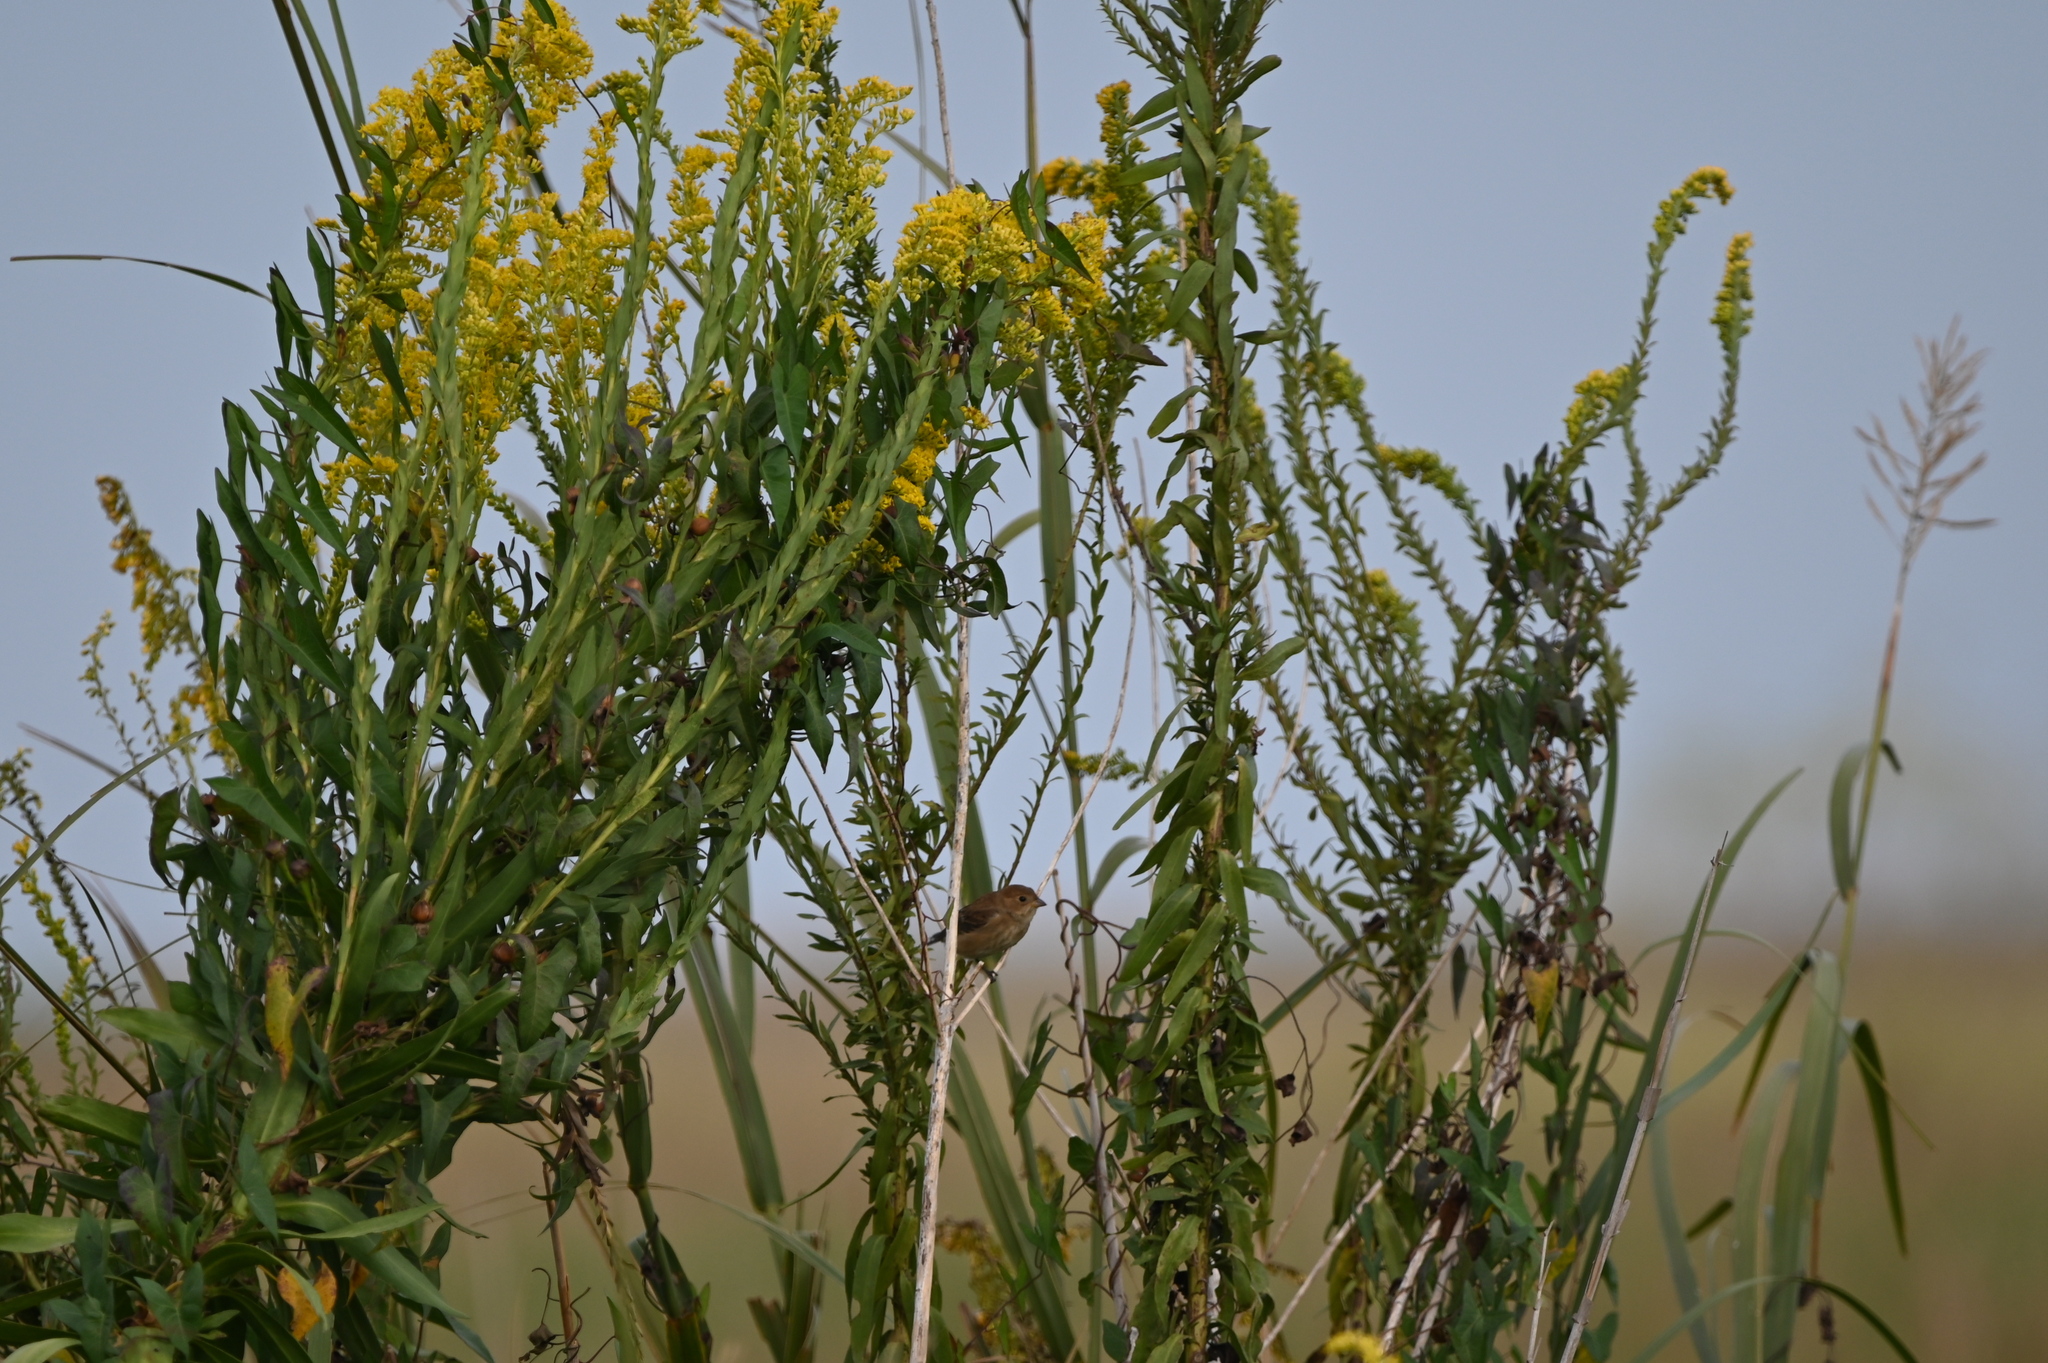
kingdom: Animalia
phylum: Chordata
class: Aves
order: Passeriformes
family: Cardinalidae
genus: Passerina
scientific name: Passerina cyanea
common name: Indigo bunting
